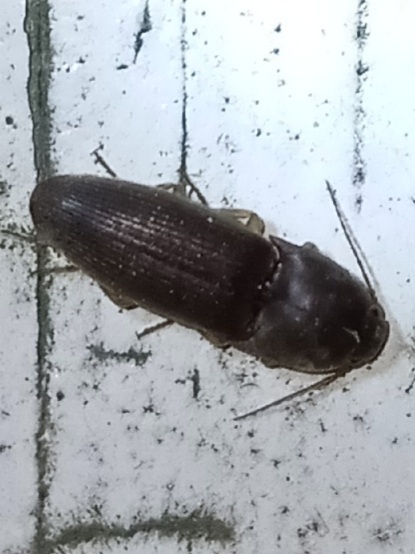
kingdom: Animalia
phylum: Arthropoda
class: Insecta
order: Coleoptera
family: Elateridae
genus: Conoderus
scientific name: Conoderus exsul
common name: Click beetle
